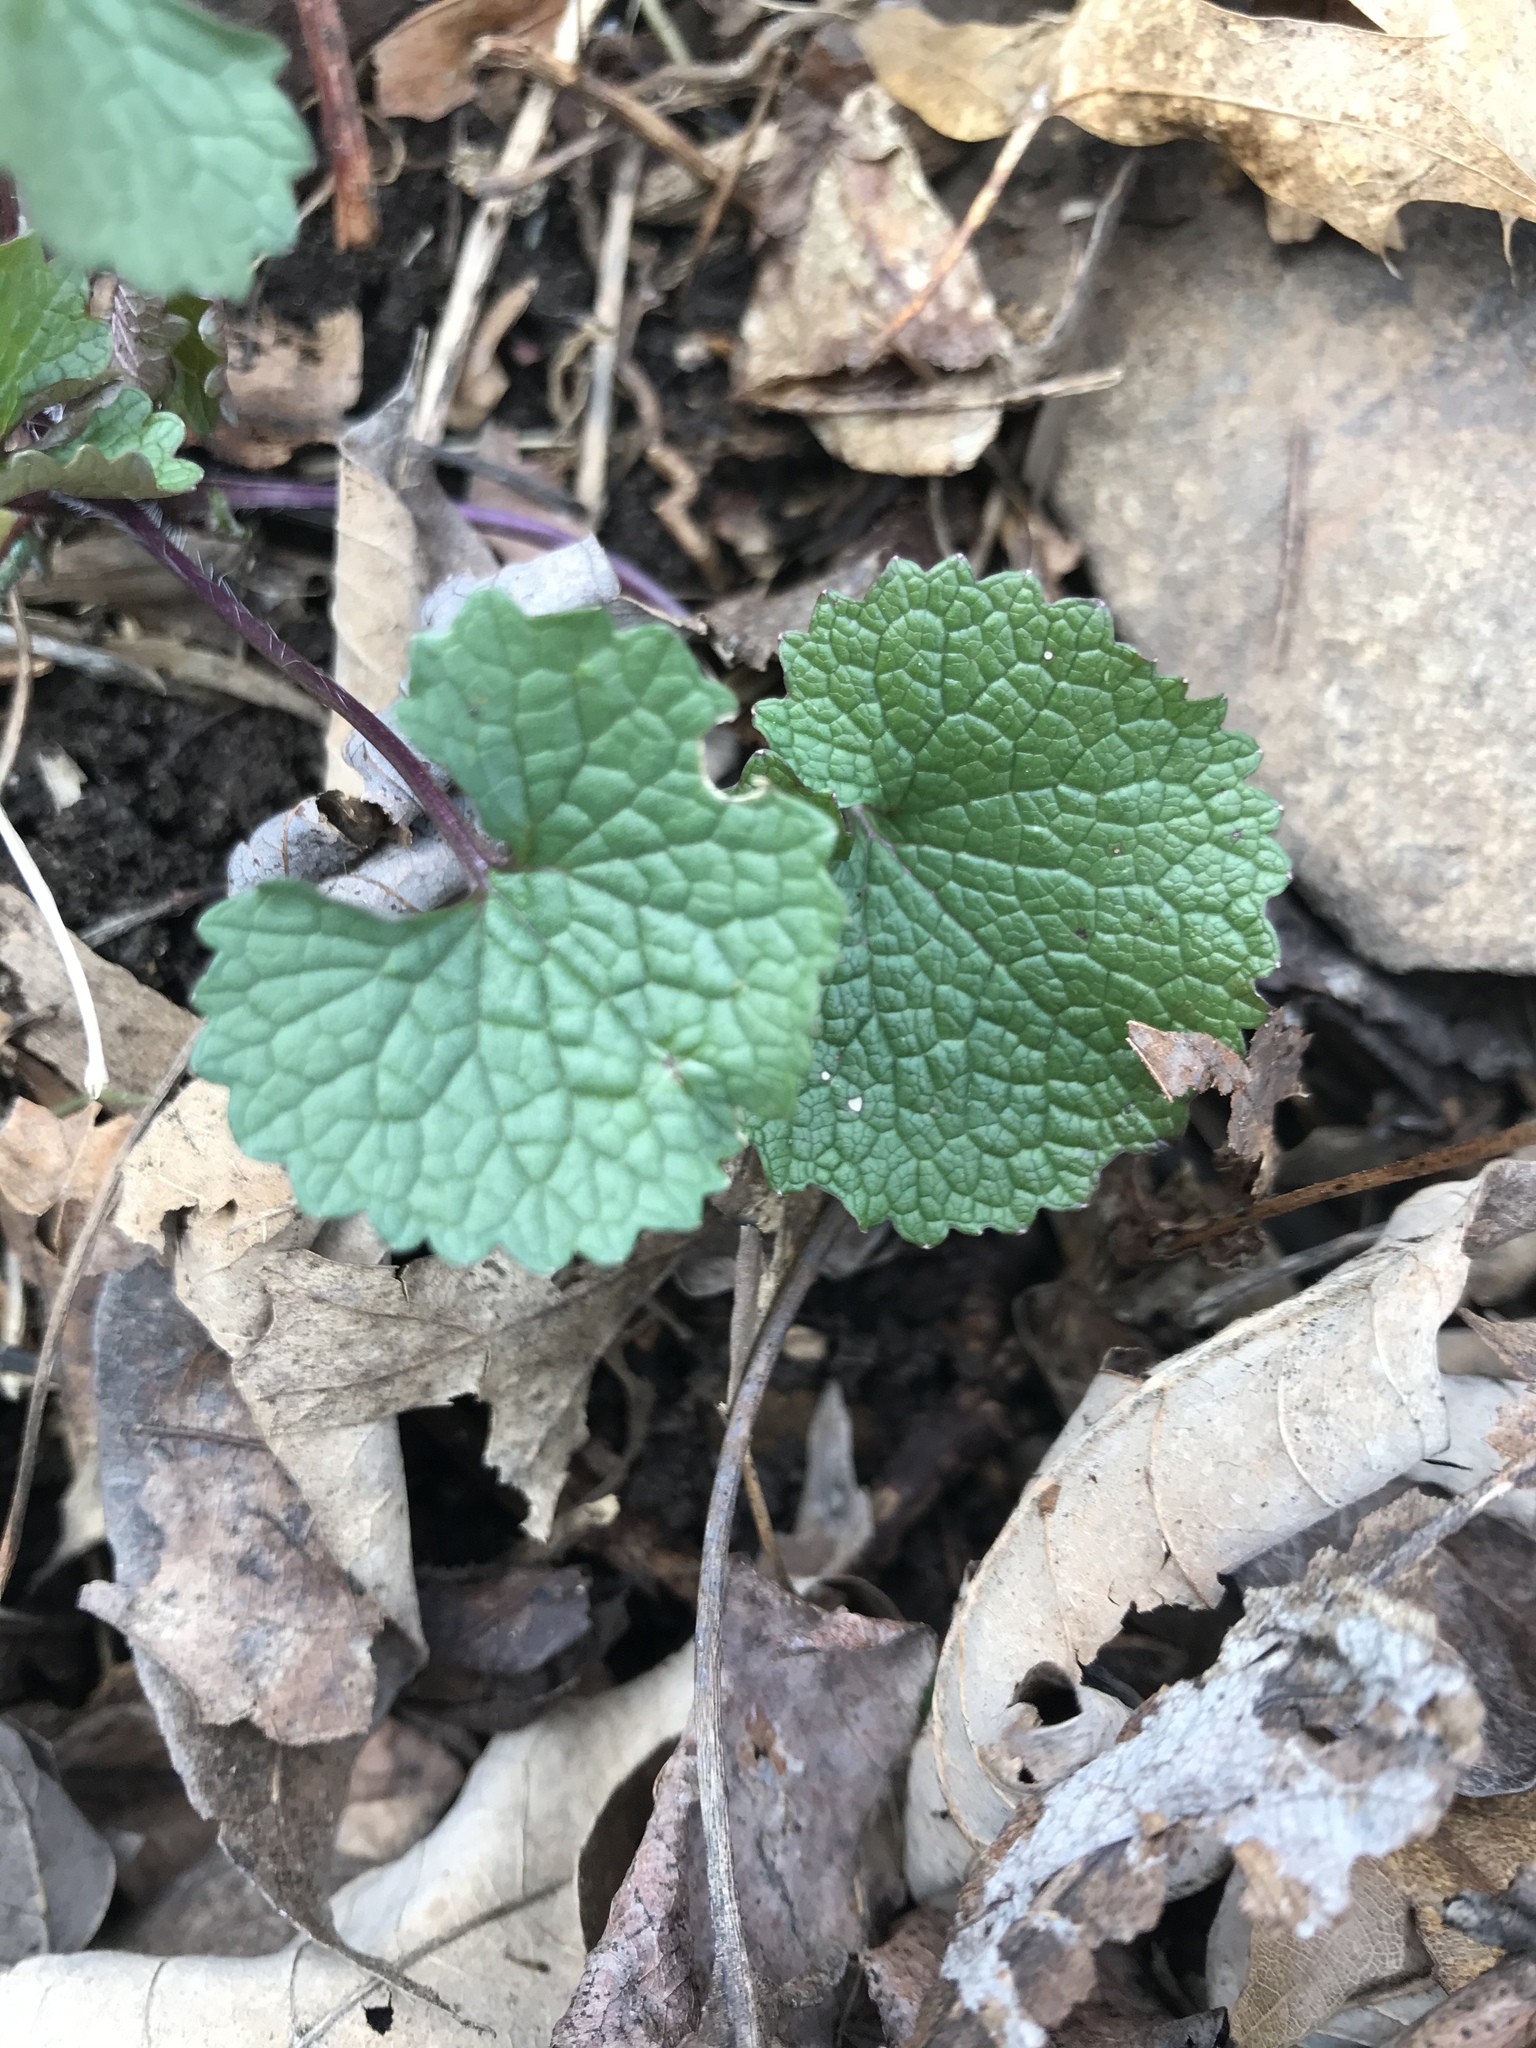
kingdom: Plantae
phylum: Tracheophyta
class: Magnoliopsida
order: Brassicales
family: Brassicaceae
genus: Alliaria
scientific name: Alliaria petiolata
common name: Garlic mustard
